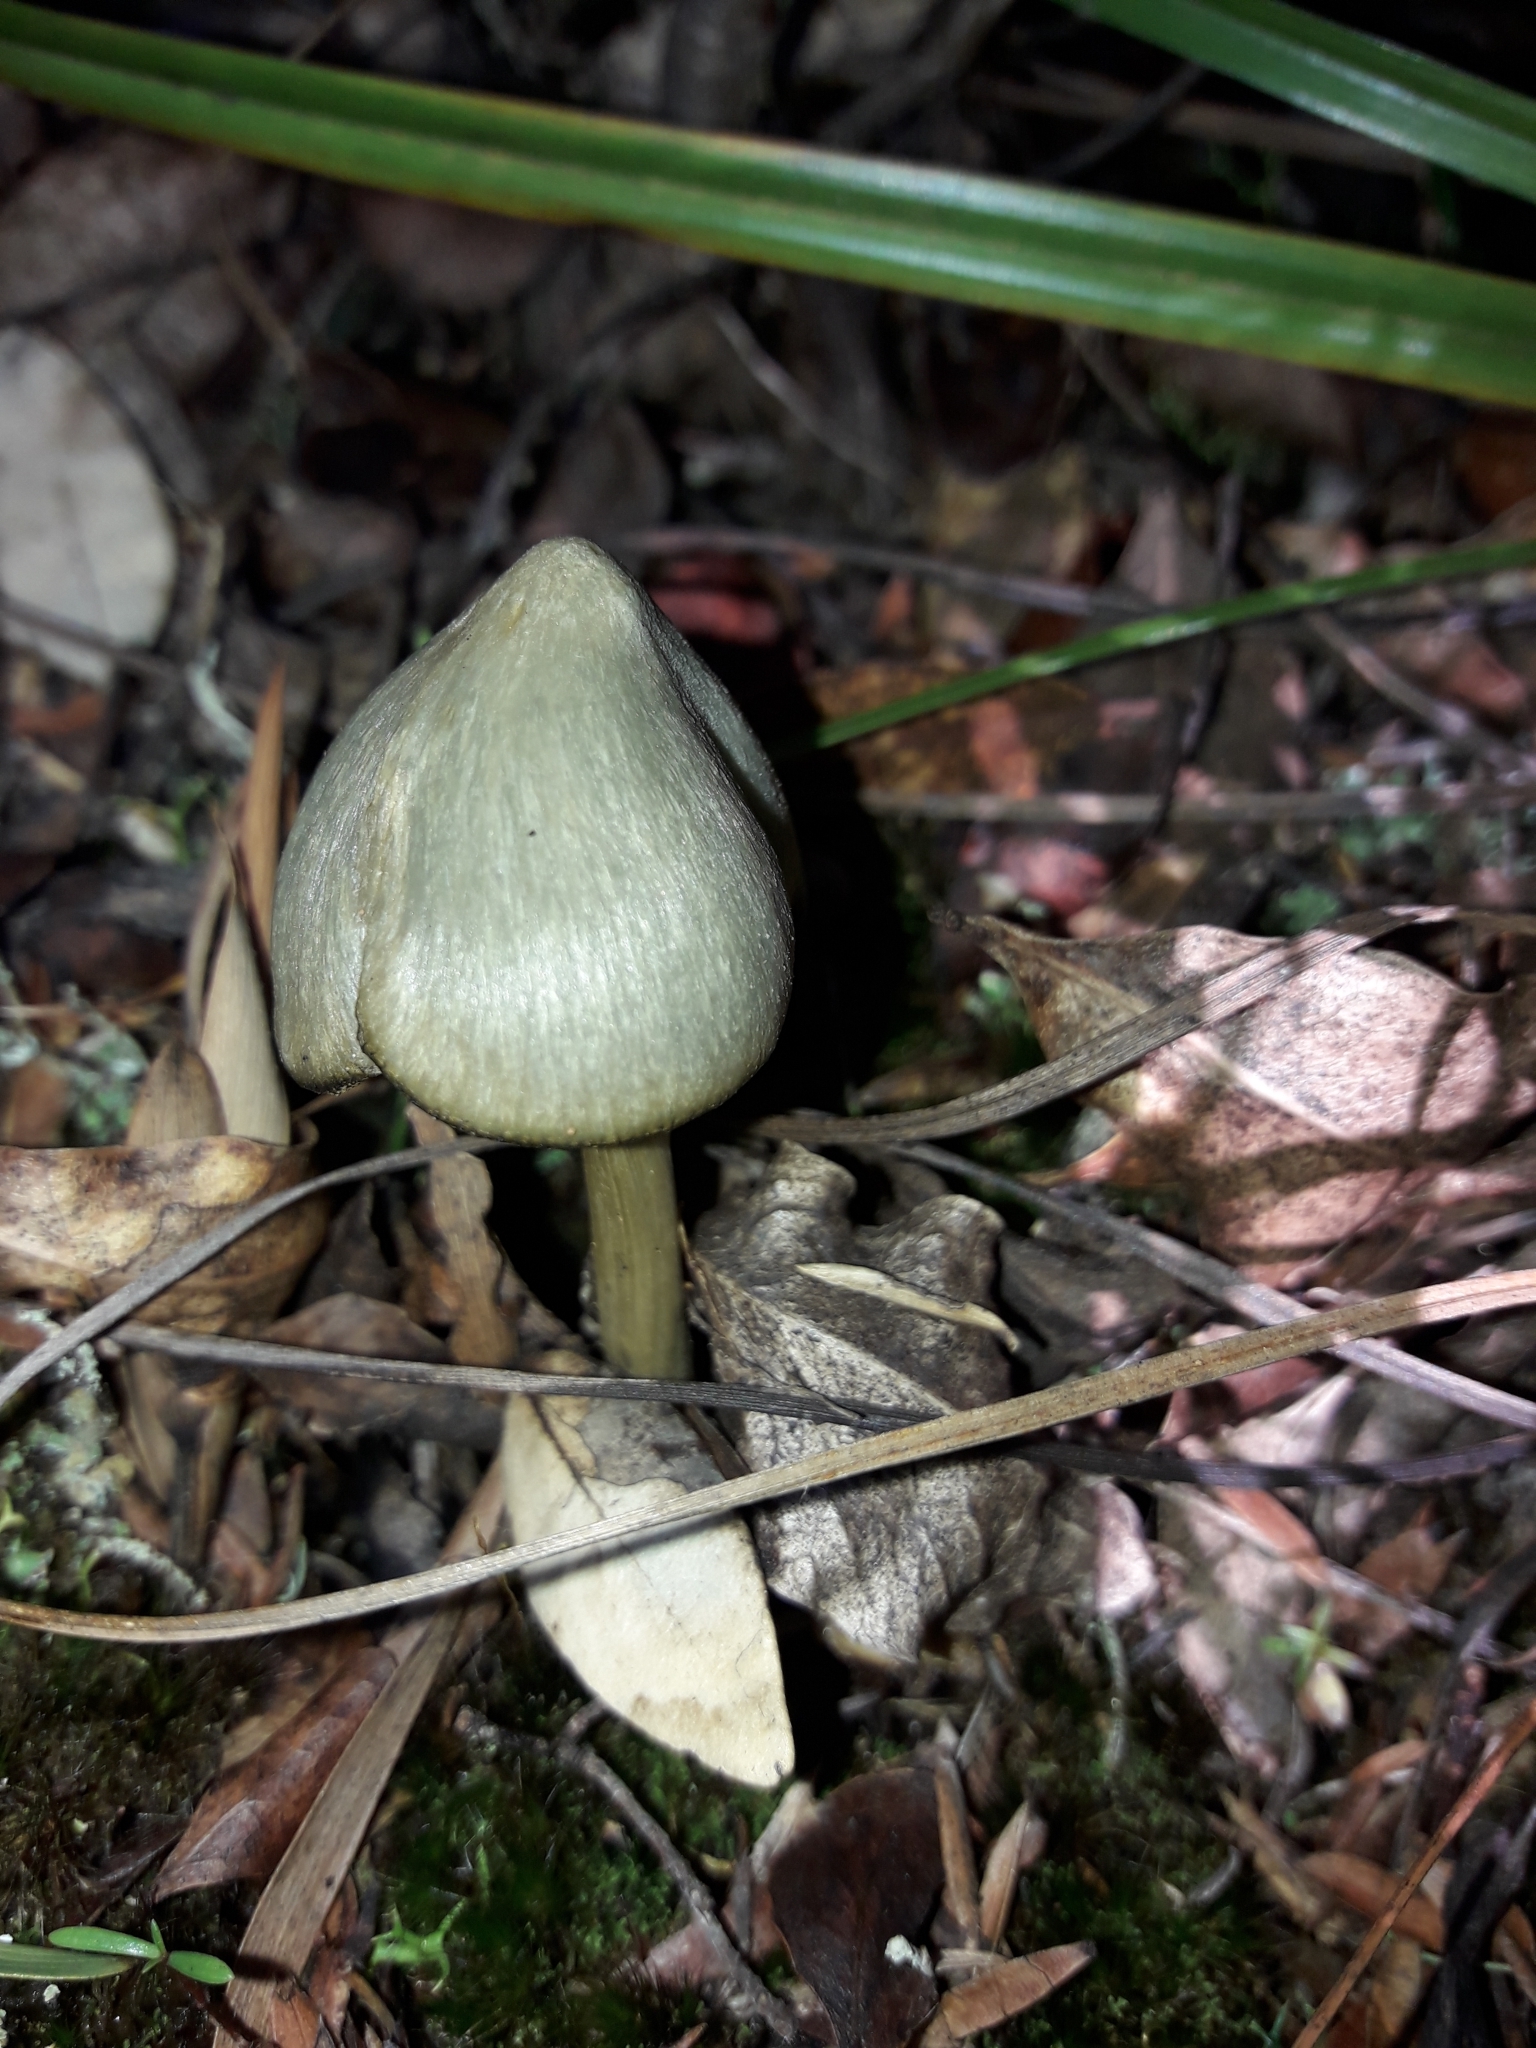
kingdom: Fungi
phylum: Basidiomycota
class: Agaricomycetes
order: Agaricales
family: Entolomataceae
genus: Entoloma
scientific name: Entoloma canoconicum
